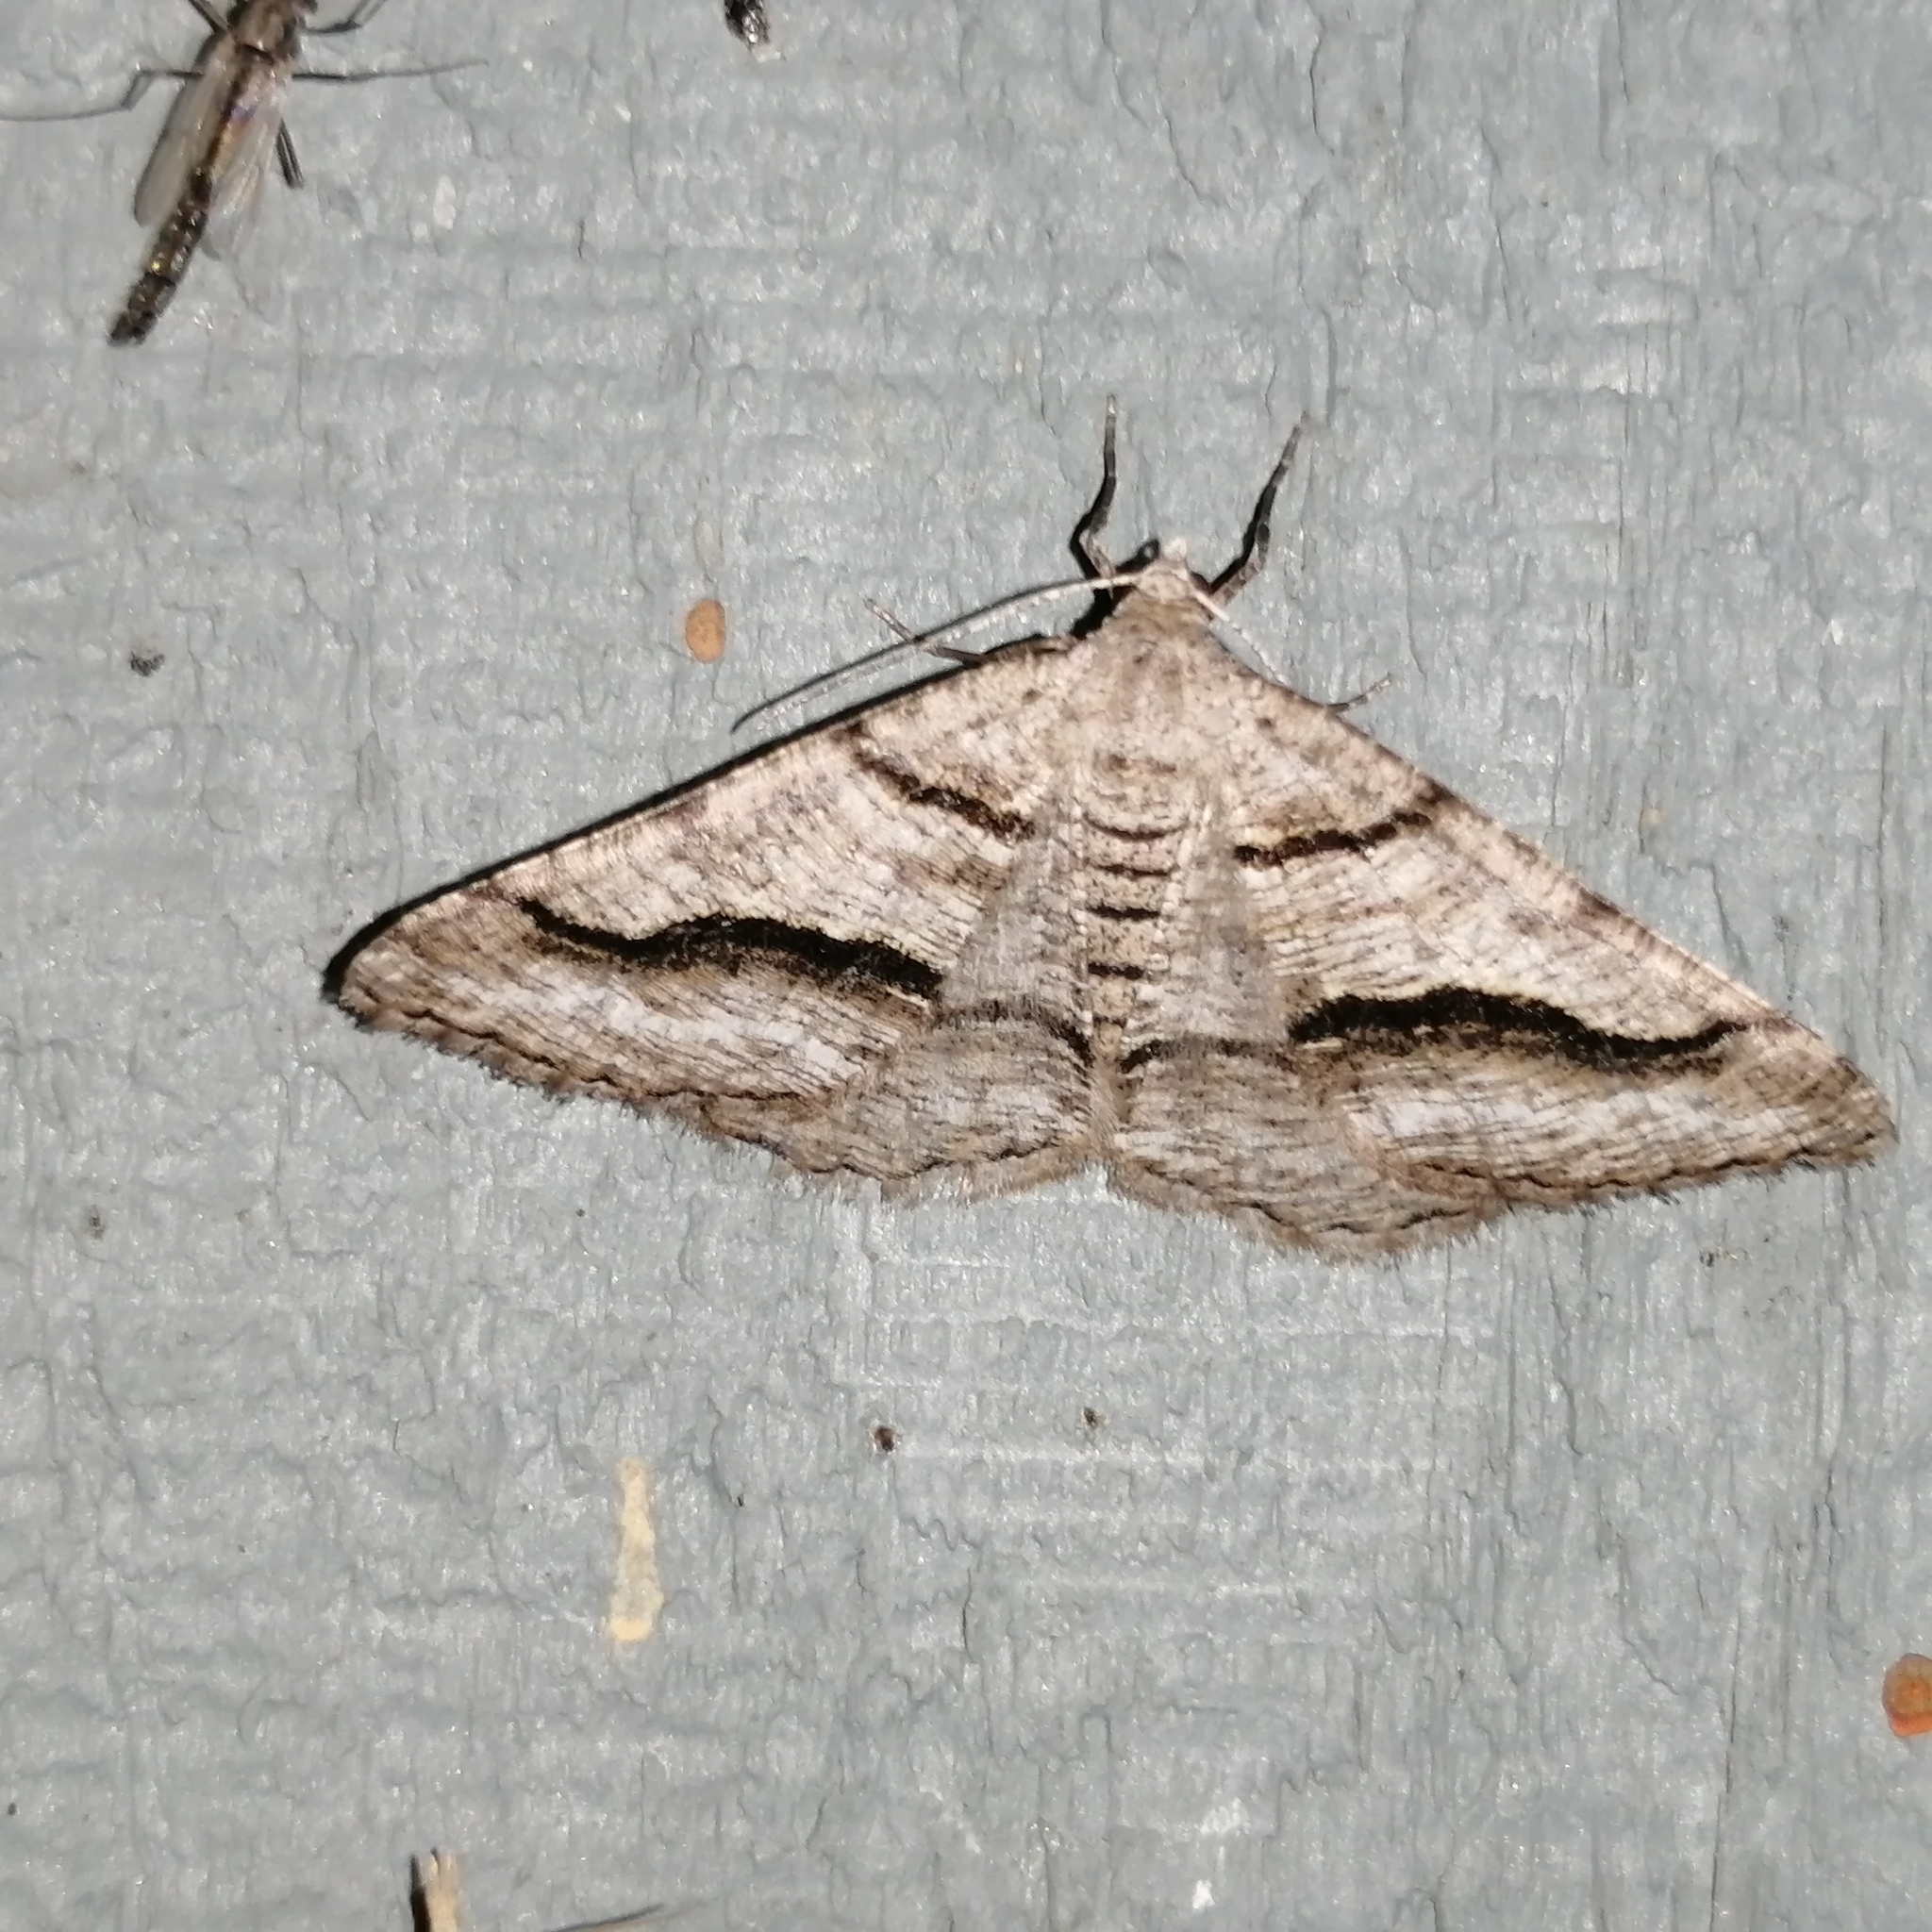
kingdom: Animalia
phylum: Arthropoda
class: Insecta
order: Lepidoptera
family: Geometridae
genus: Digrammia
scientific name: Digrammia continuata
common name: Curve-lined angle
